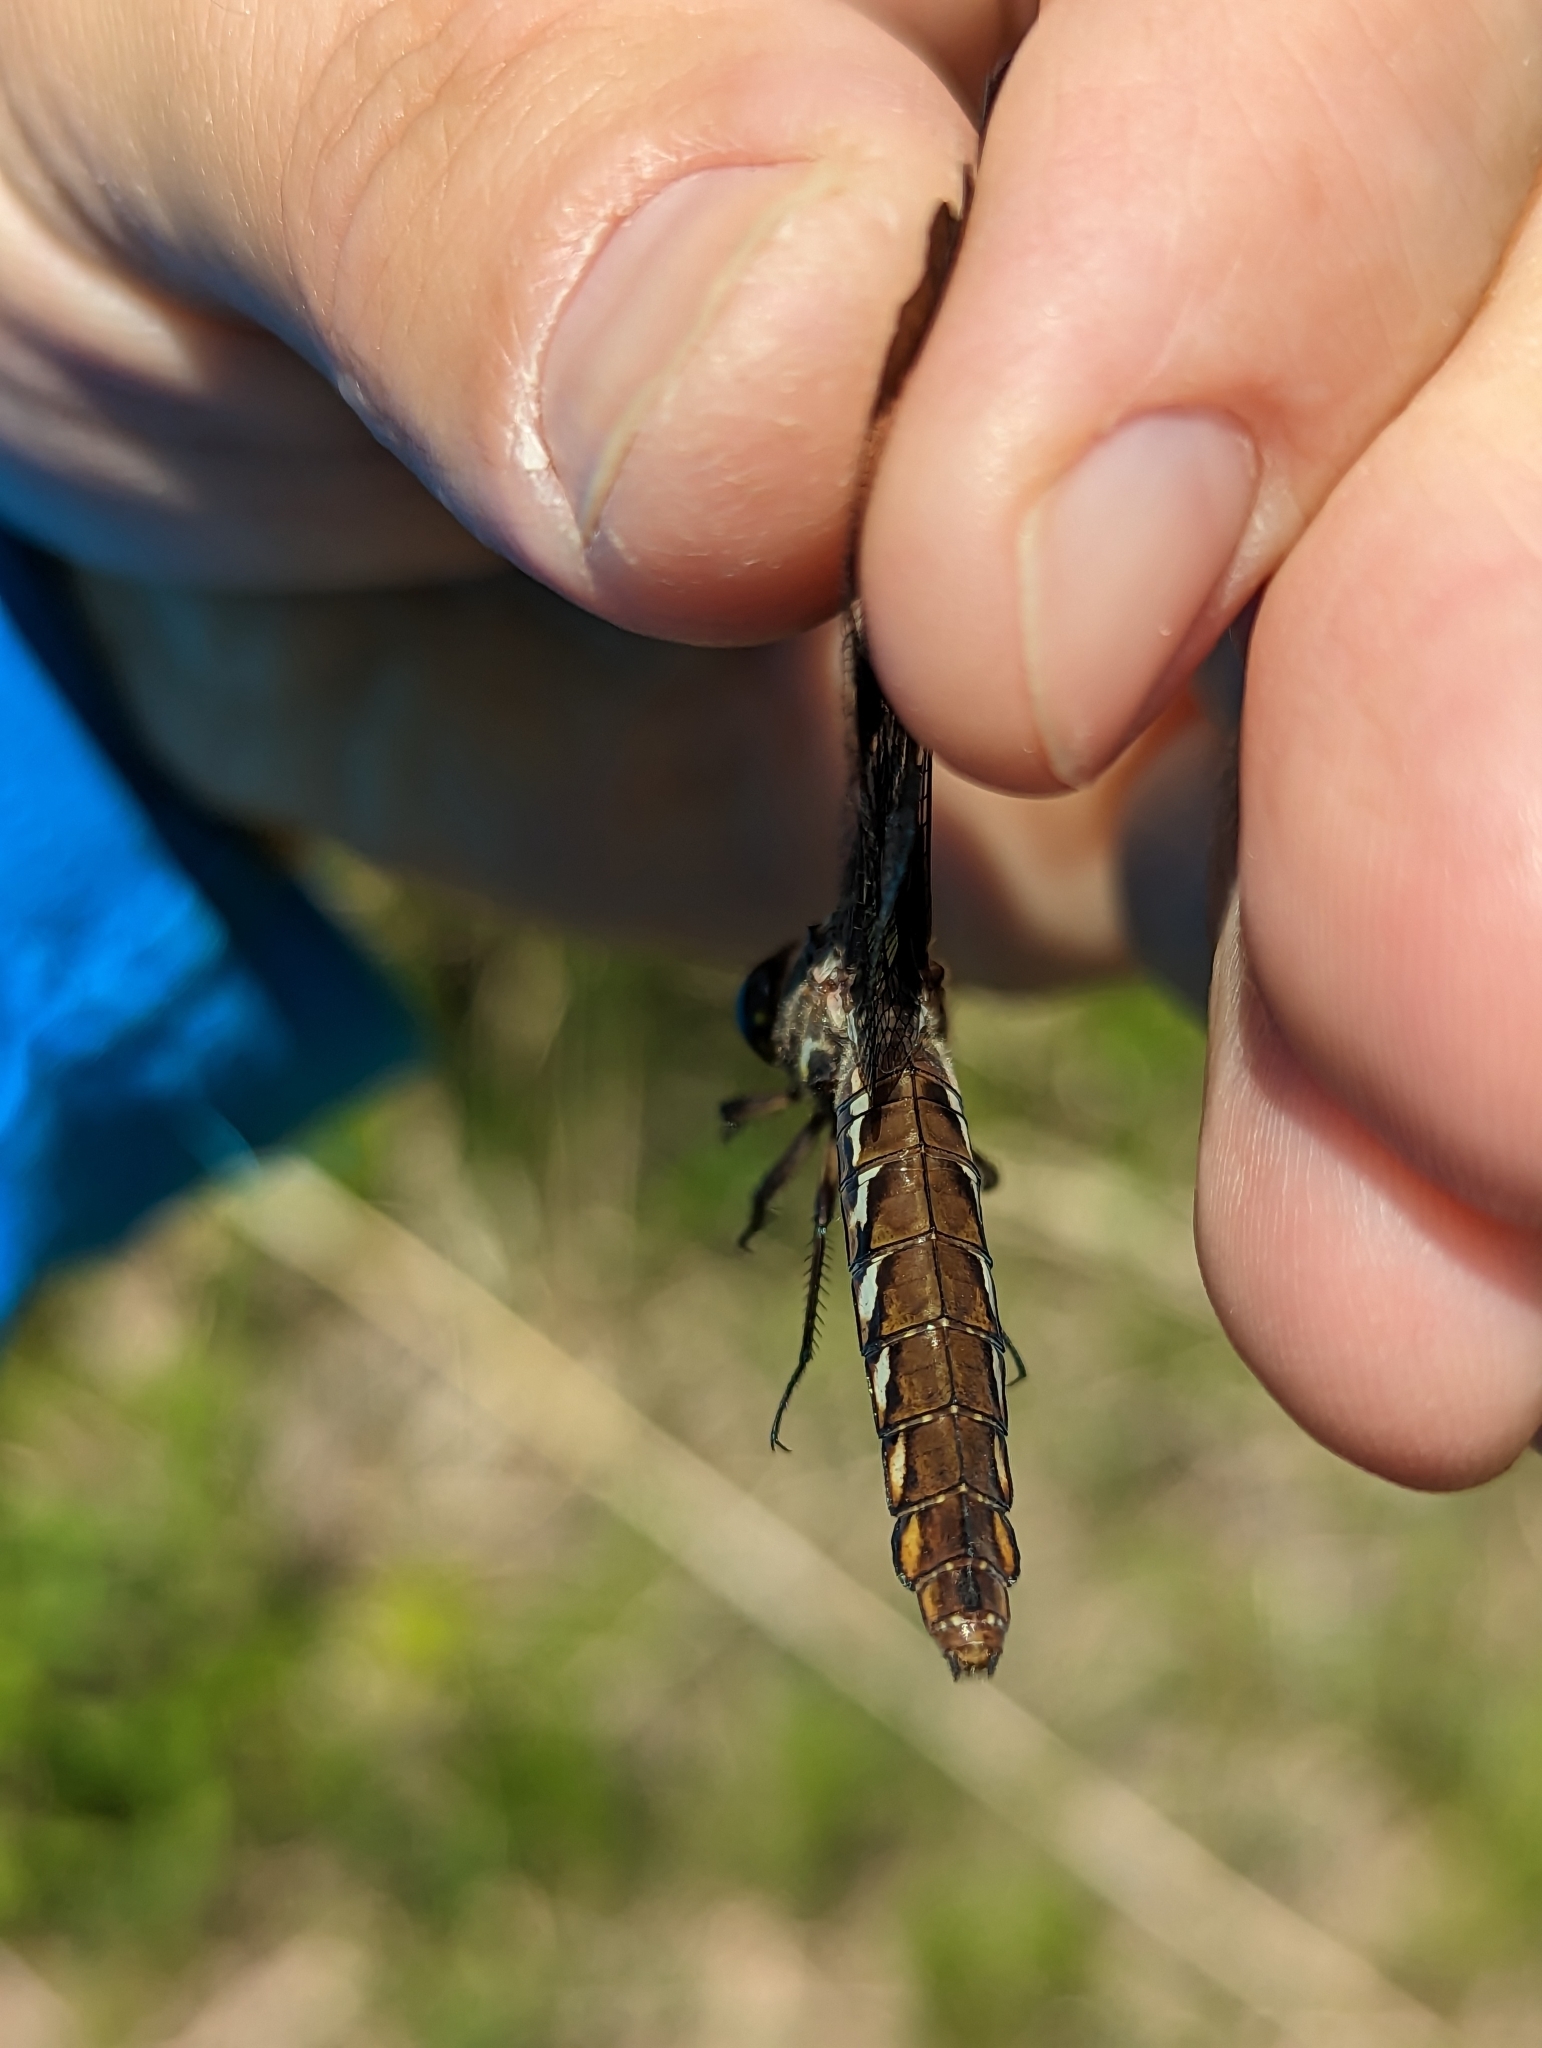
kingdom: Animalia
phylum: Arthropoda
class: Insecta
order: Odonata
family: Libellulidae
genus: Plathemis
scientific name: Plathemis lydia
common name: Common whitetail
